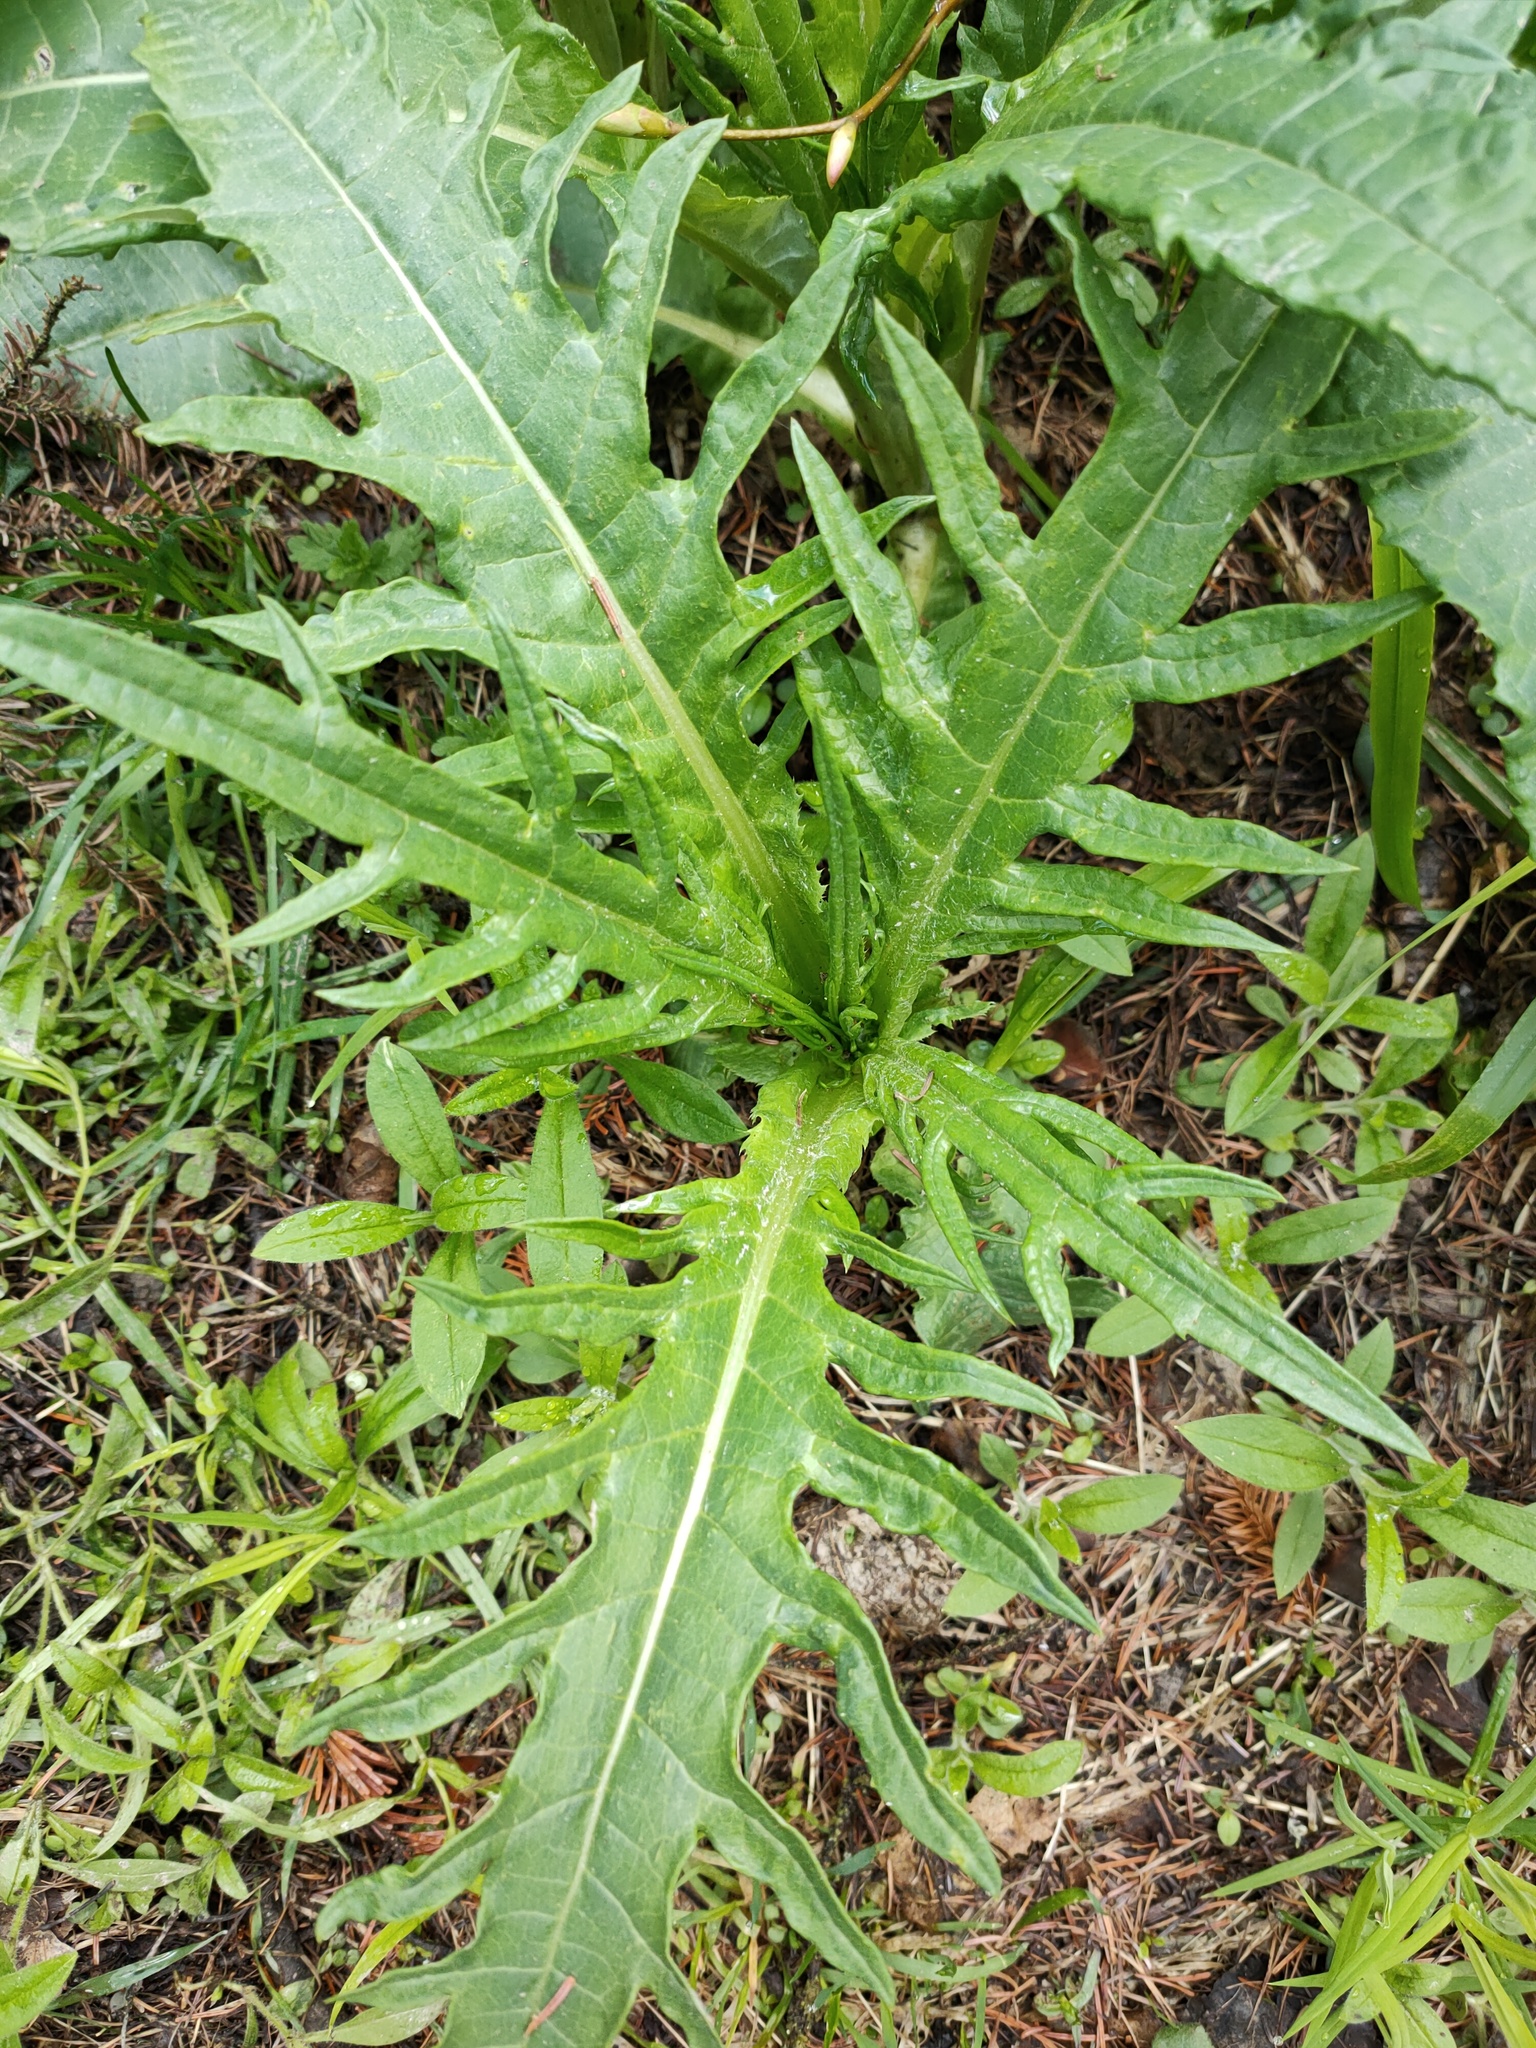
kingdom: Plantae
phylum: Tracheophyta
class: Magnoliopsida
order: Asterales
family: Asteraceae
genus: Cirsium
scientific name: Cirsium heterophyllum
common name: Melancholy thistle
